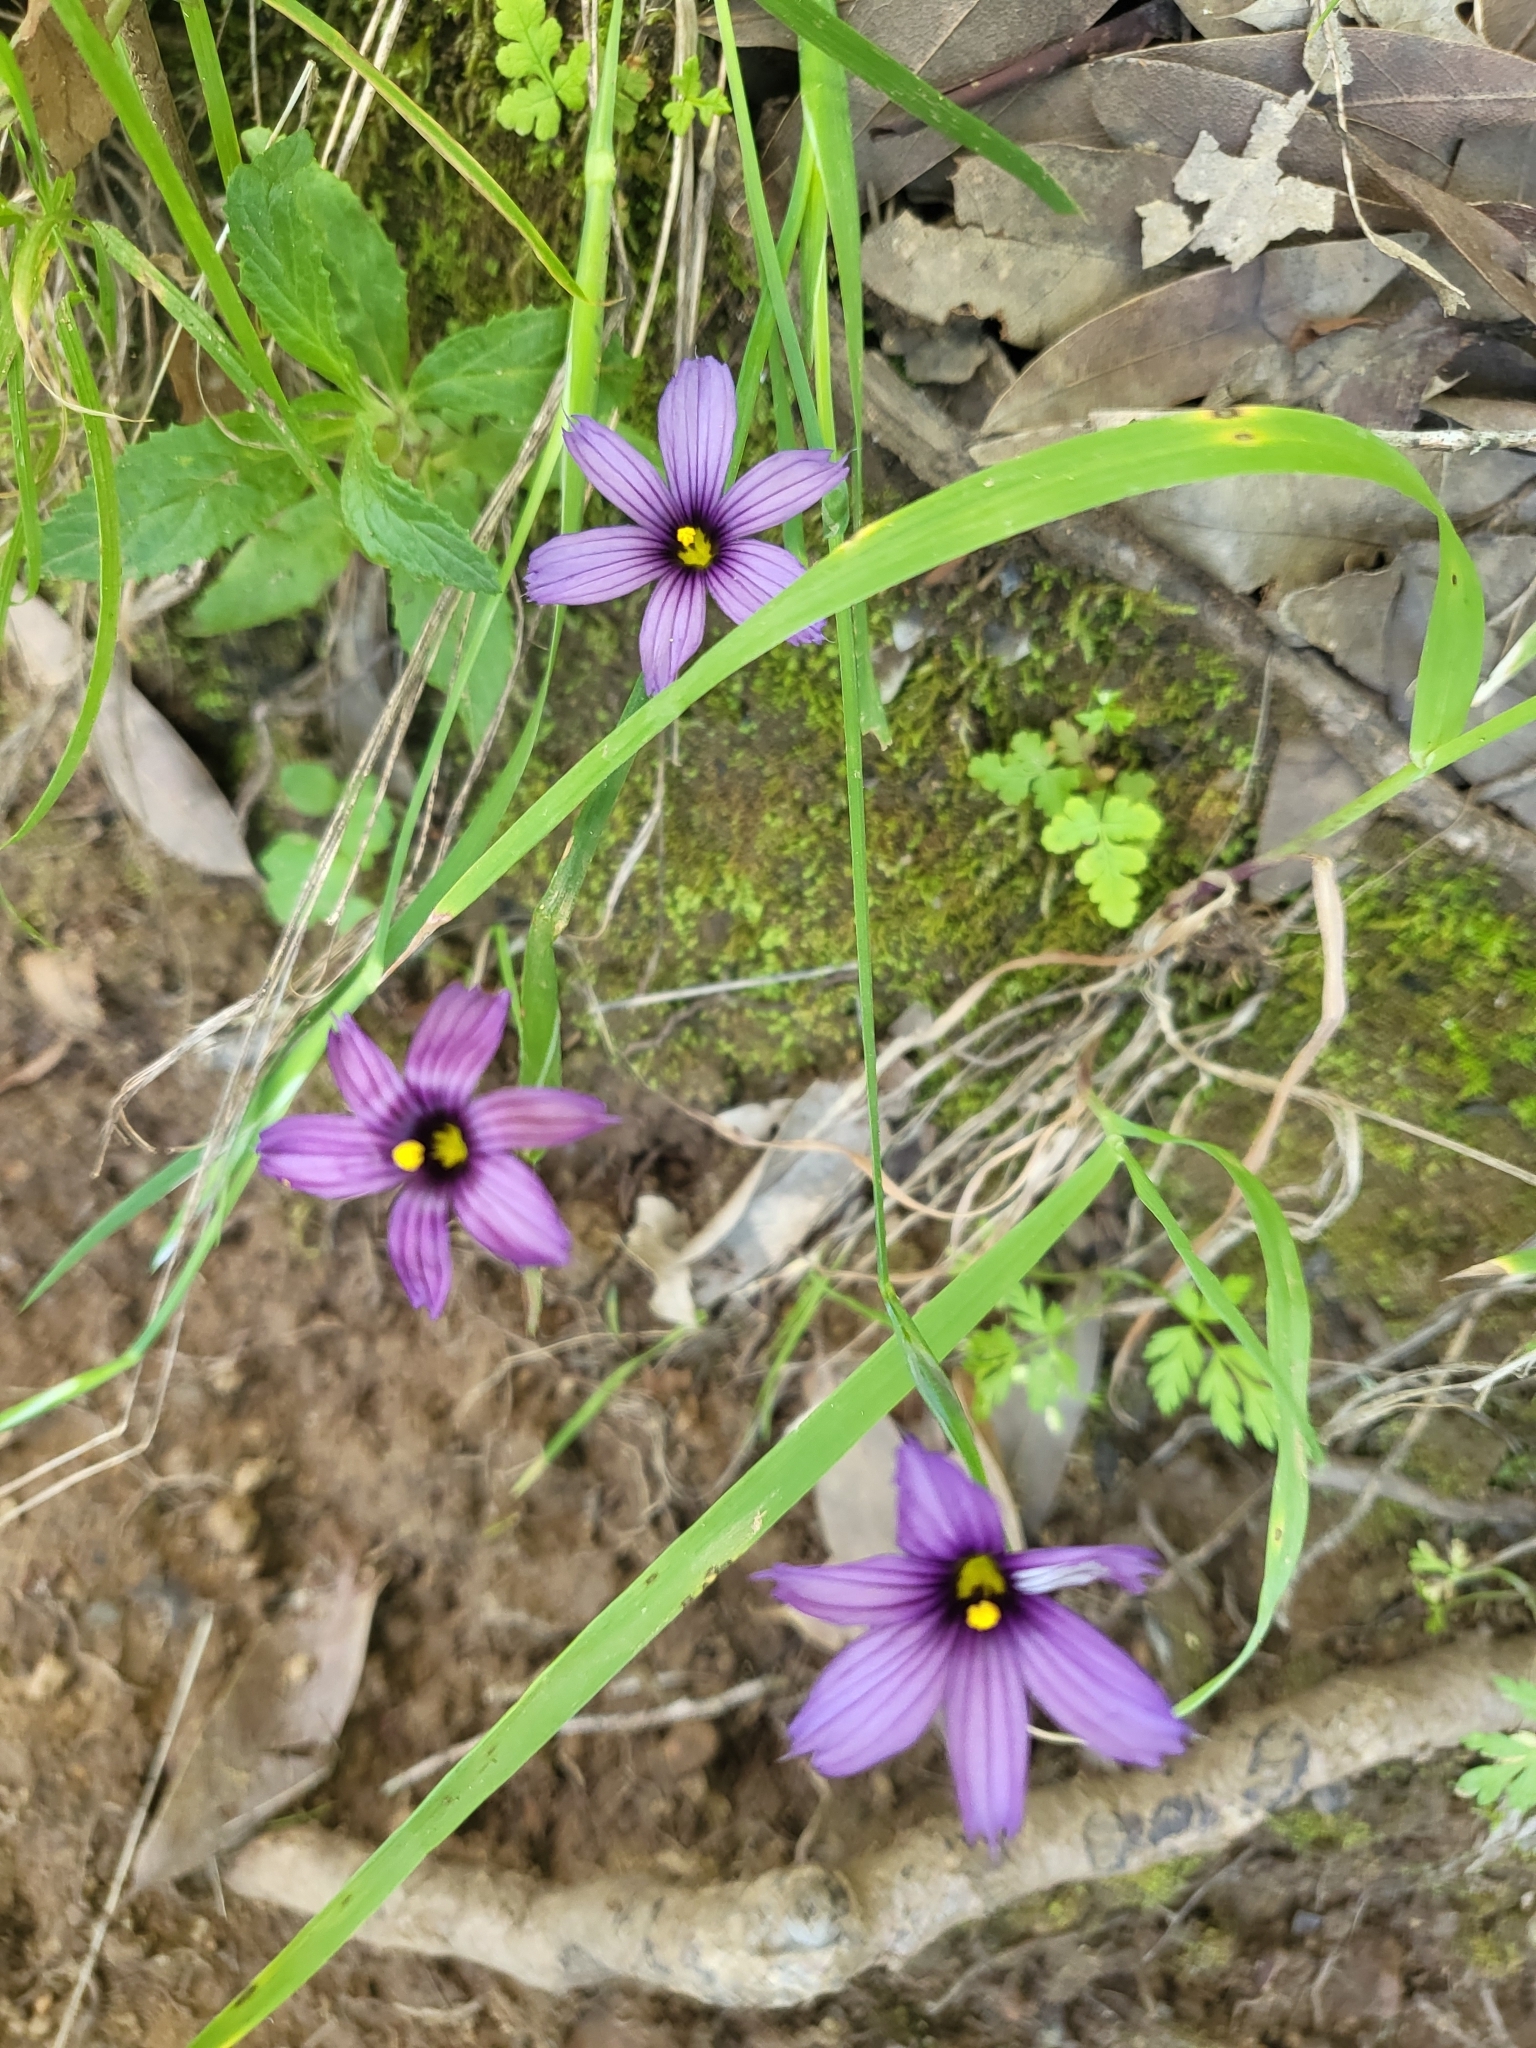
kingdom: Plantae
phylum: Tracheophyta
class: Liliopsida
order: Asparagales
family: Iridaceae
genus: Sisyrinchium
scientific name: Sisyrinchium bellum
